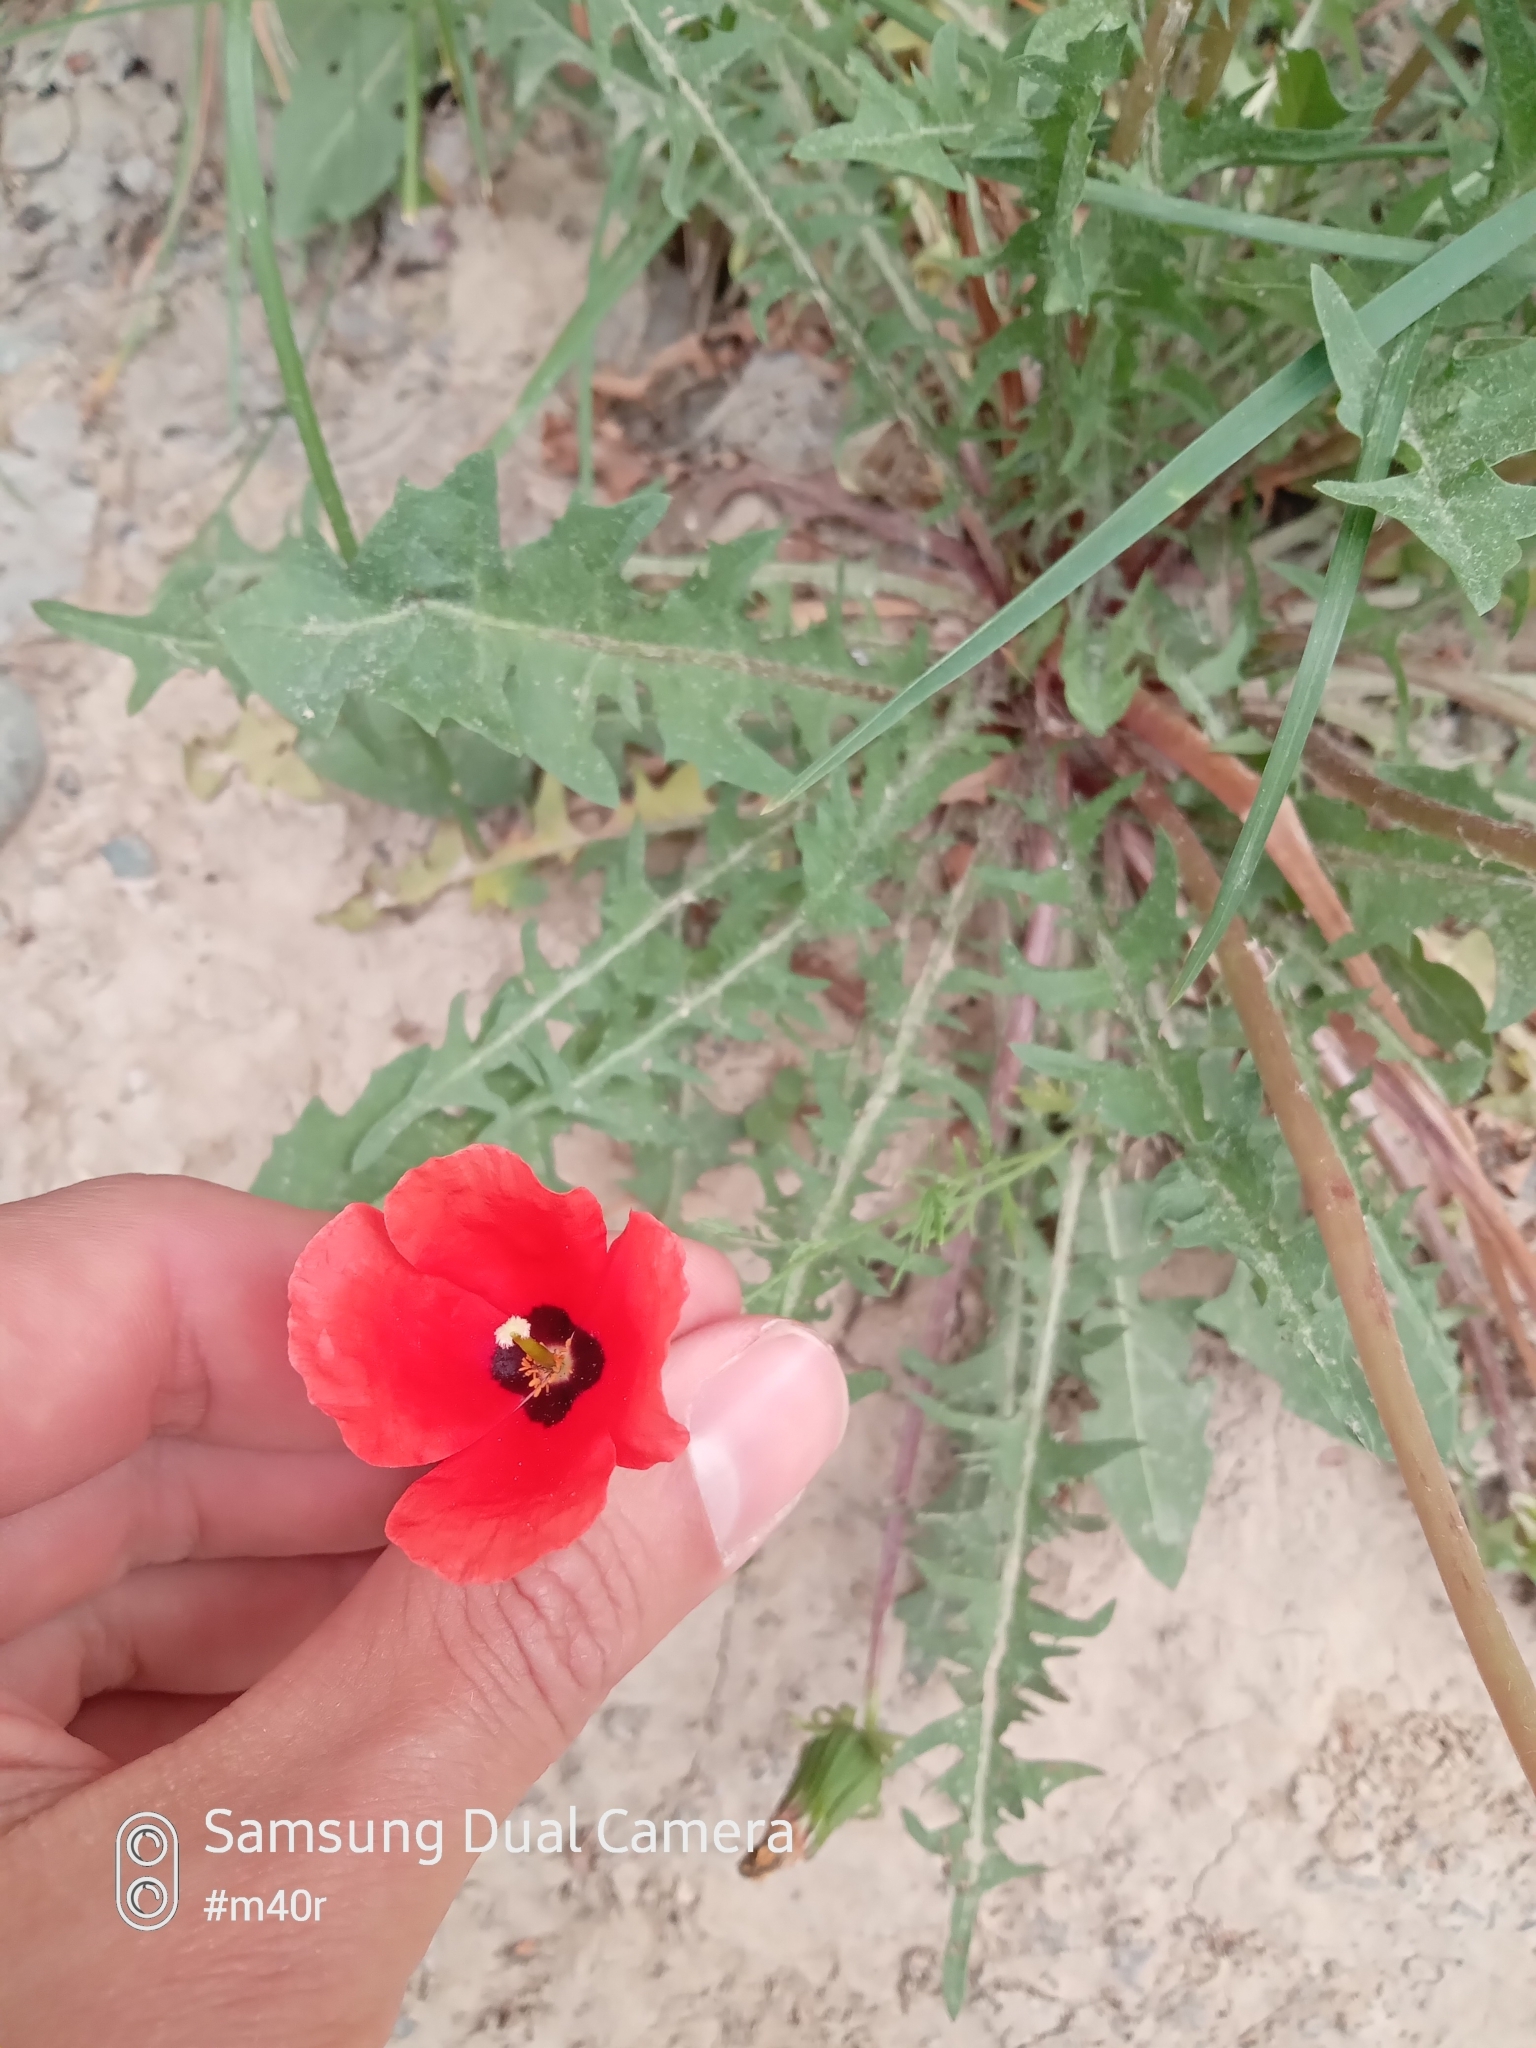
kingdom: Plantae
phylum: Tracheophyta
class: Magnoliopsida
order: Ranunculales
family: Papaveraceae
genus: Roemeria
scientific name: Roemeria refracta
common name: Spotted asian poppy
